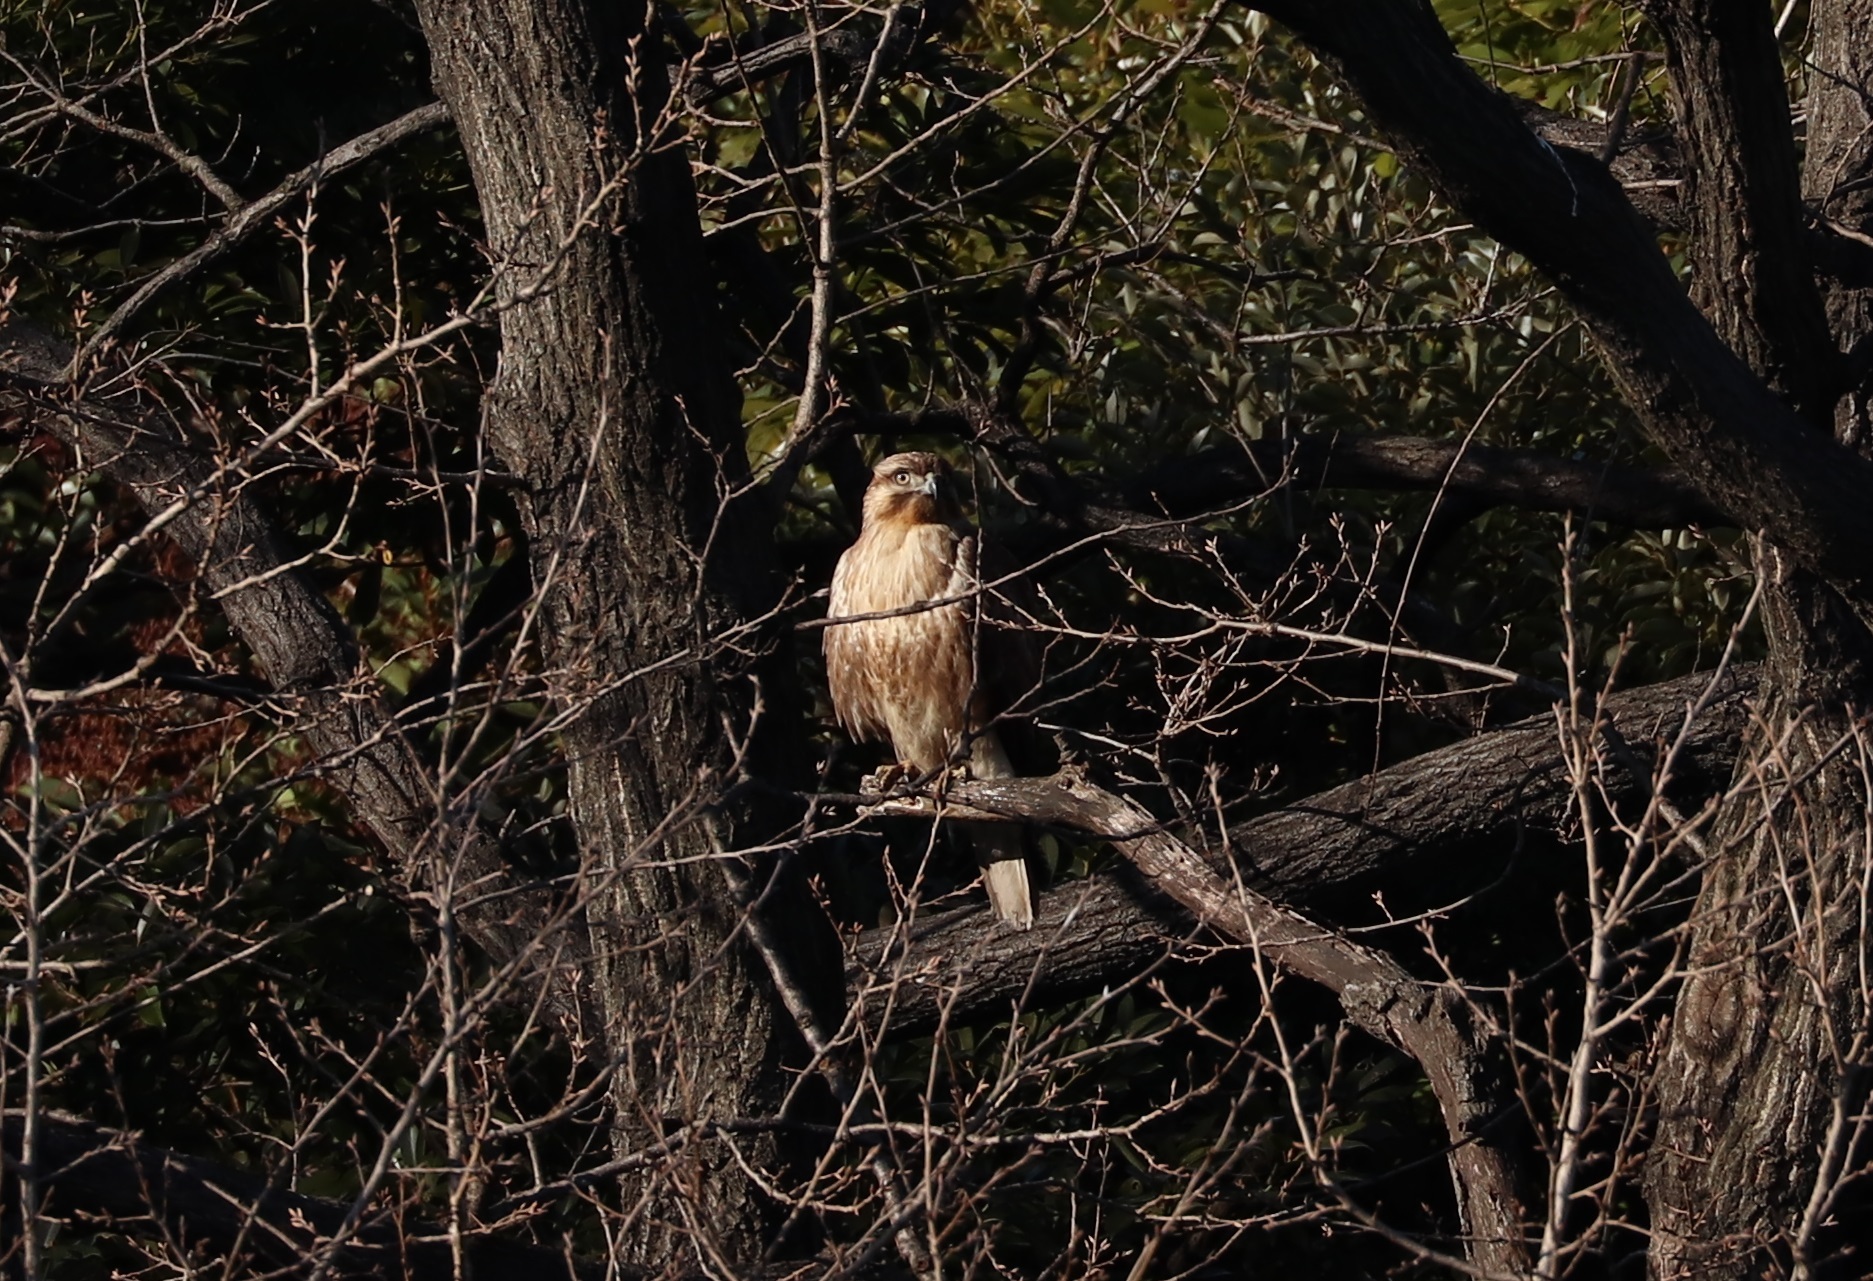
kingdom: Animalia
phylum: Chordata
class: Aves
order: Accipitriformes
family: Accipitridae
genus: Buteo
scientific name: Buteo japonicus
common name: Eastern buzzard
